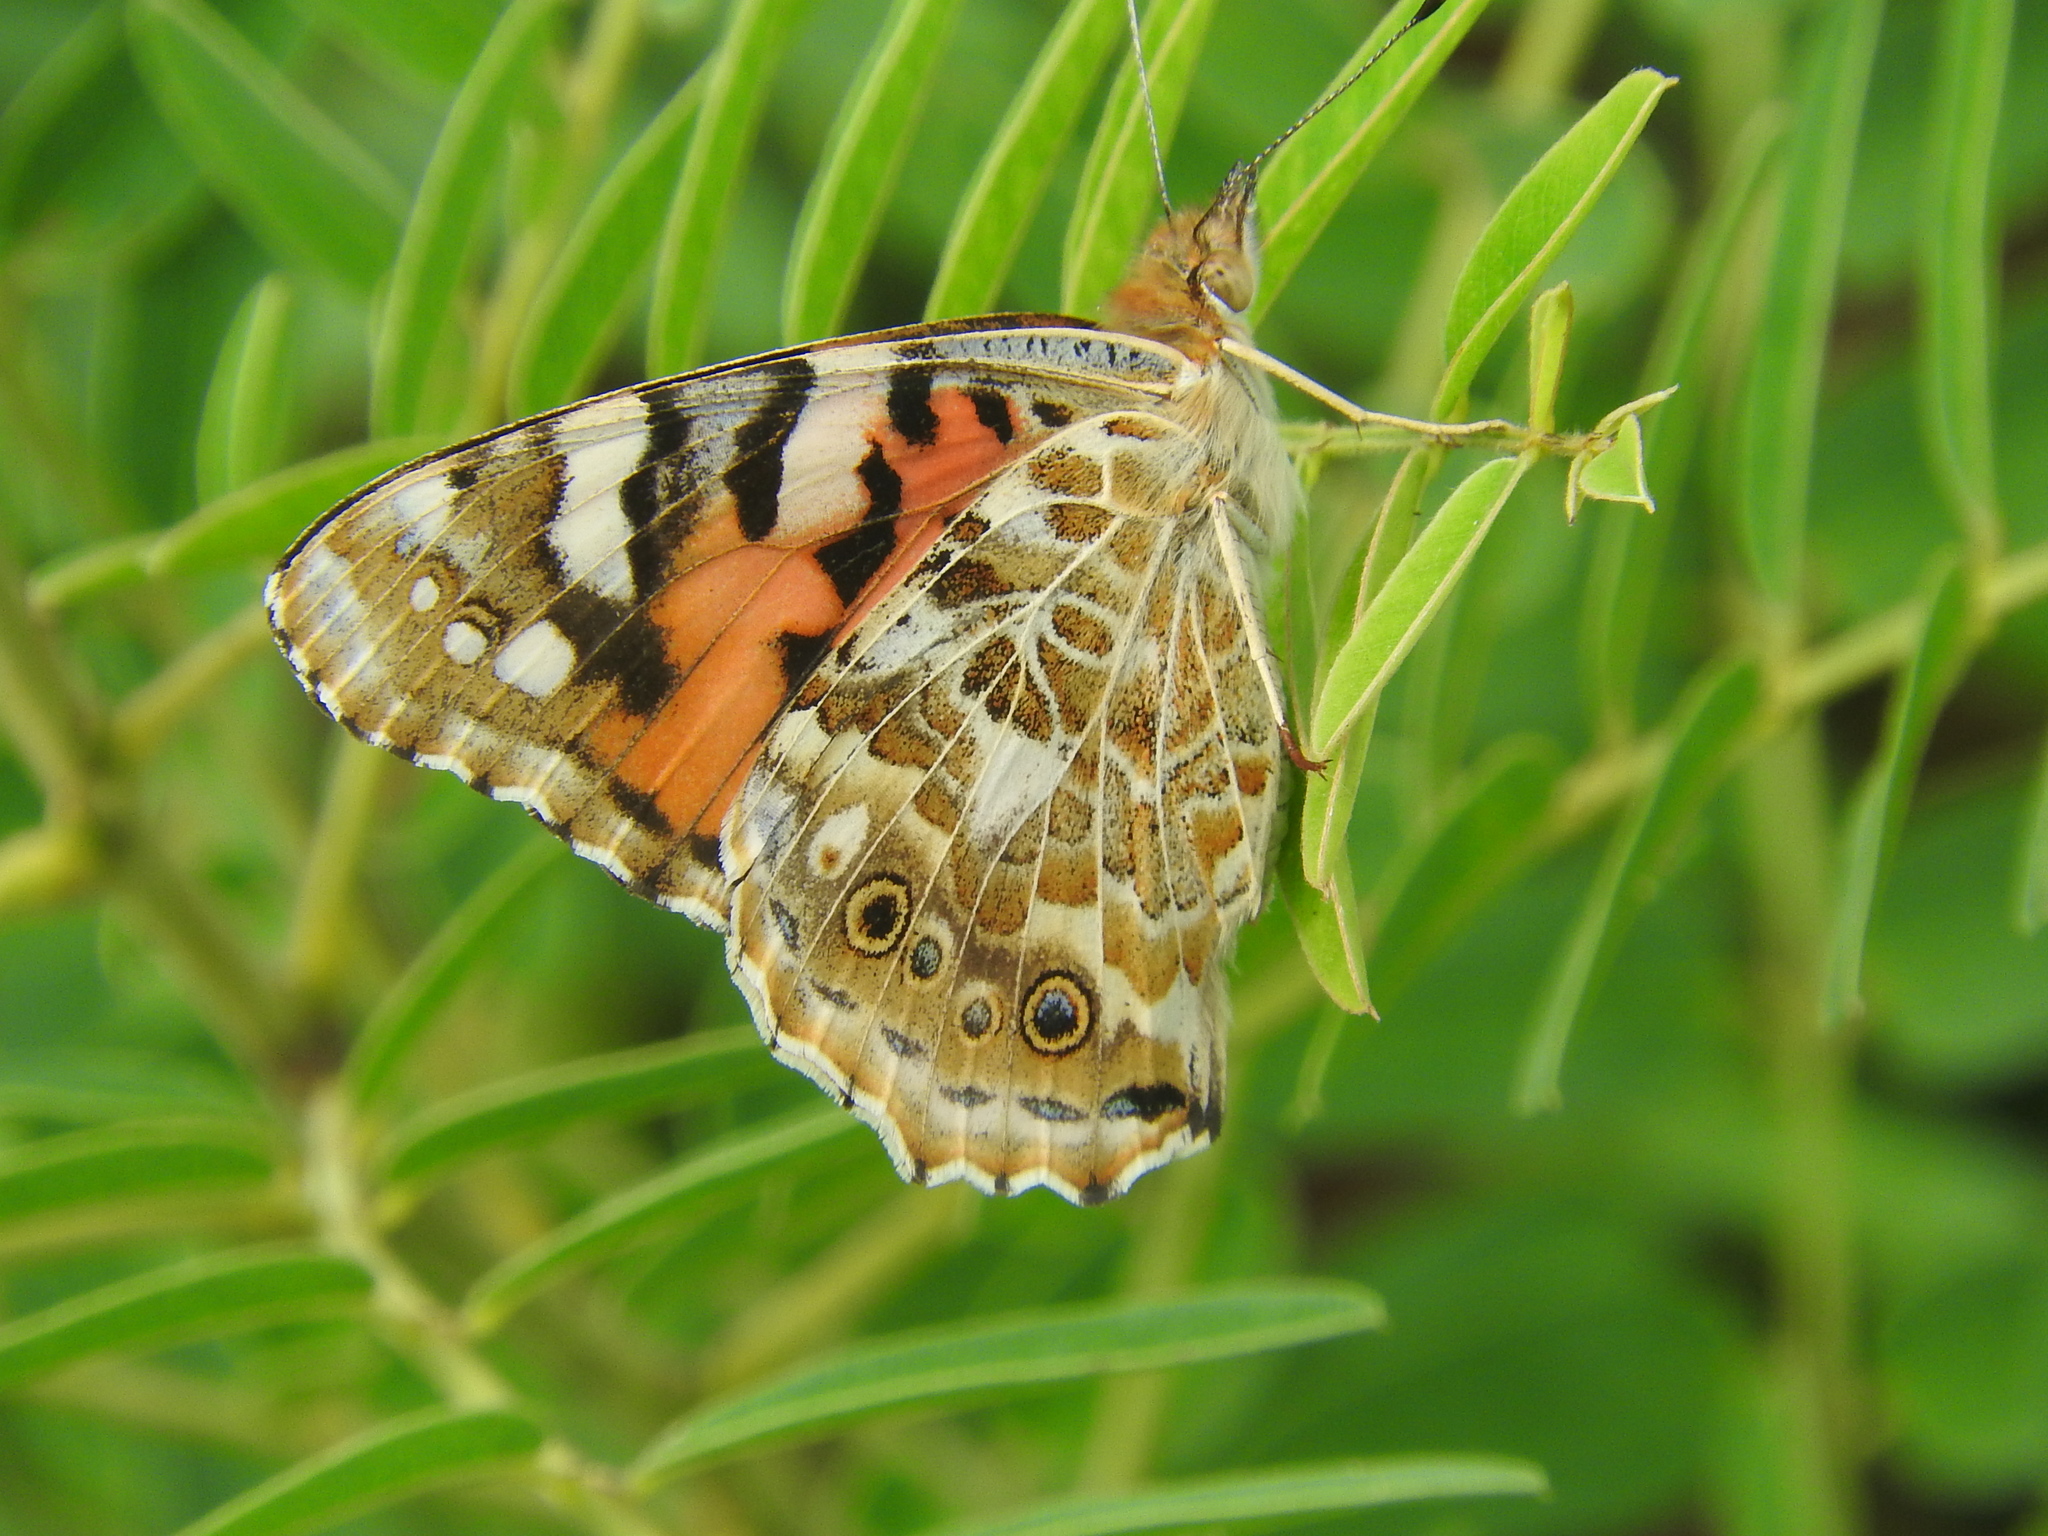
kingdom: Animalia
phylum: Arthropoda
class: Insecta
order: Lepidoptera
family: Nymphalidae
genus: Vanessa
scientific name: Vanessa cardui
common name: Painted lady
